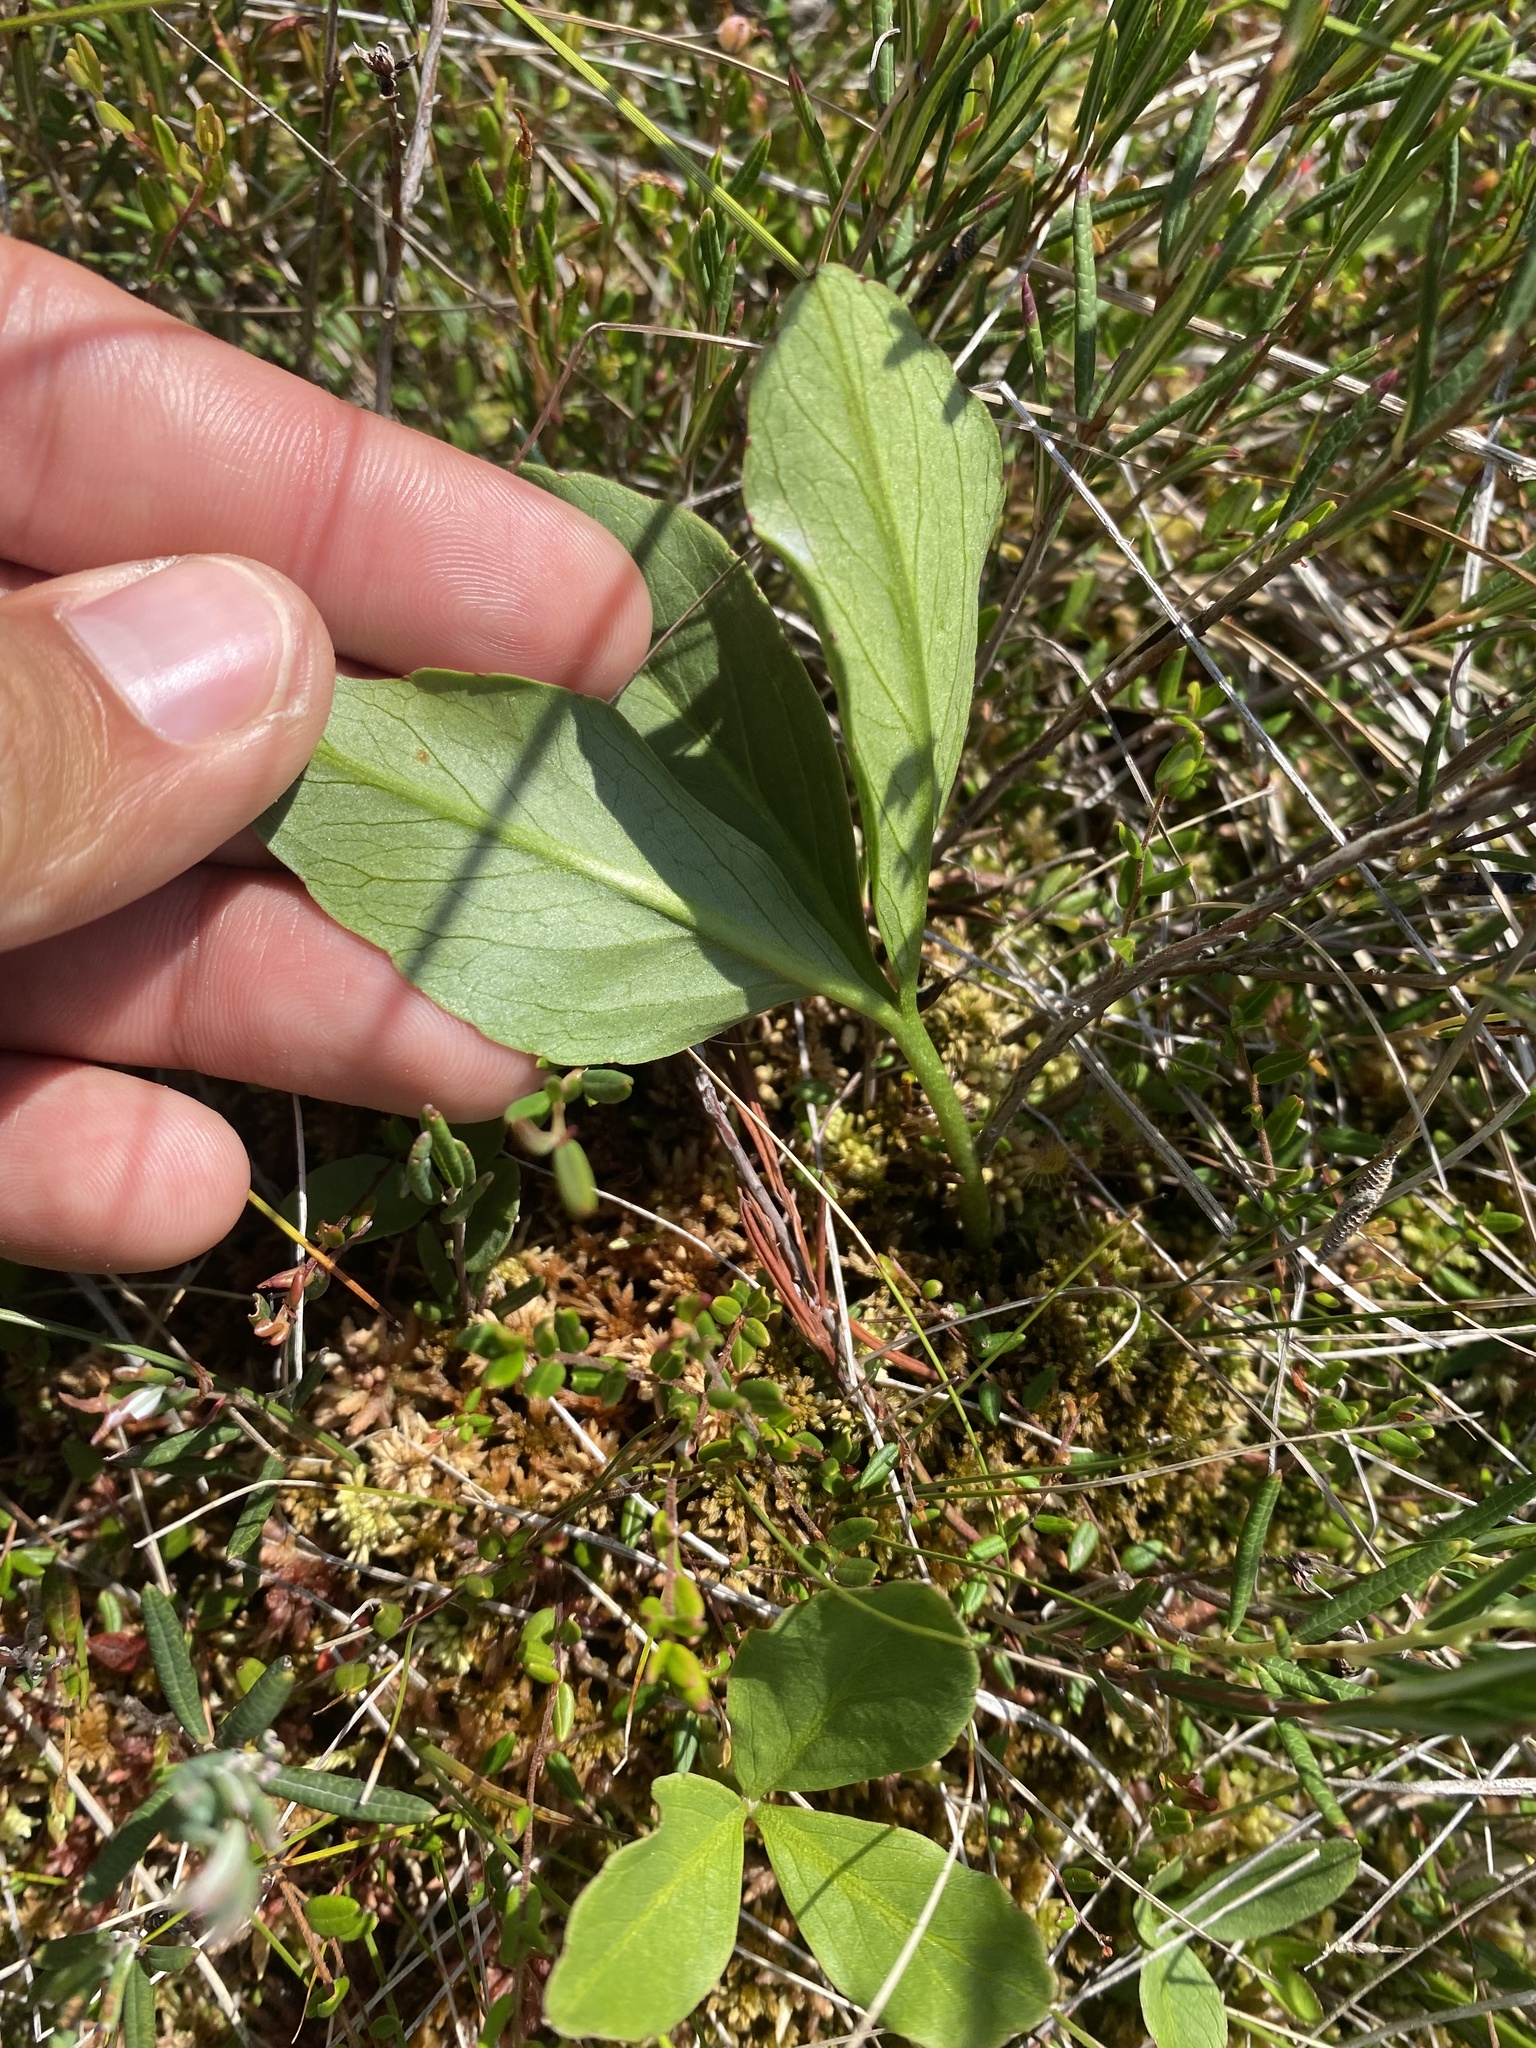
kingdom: Plantae
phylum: Tracheophyta
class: Magnoliopsida
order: Asterales
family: Menyanthaceae
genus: Menyanthes
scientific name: Menyanthes trifoliata
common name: Bogbean
